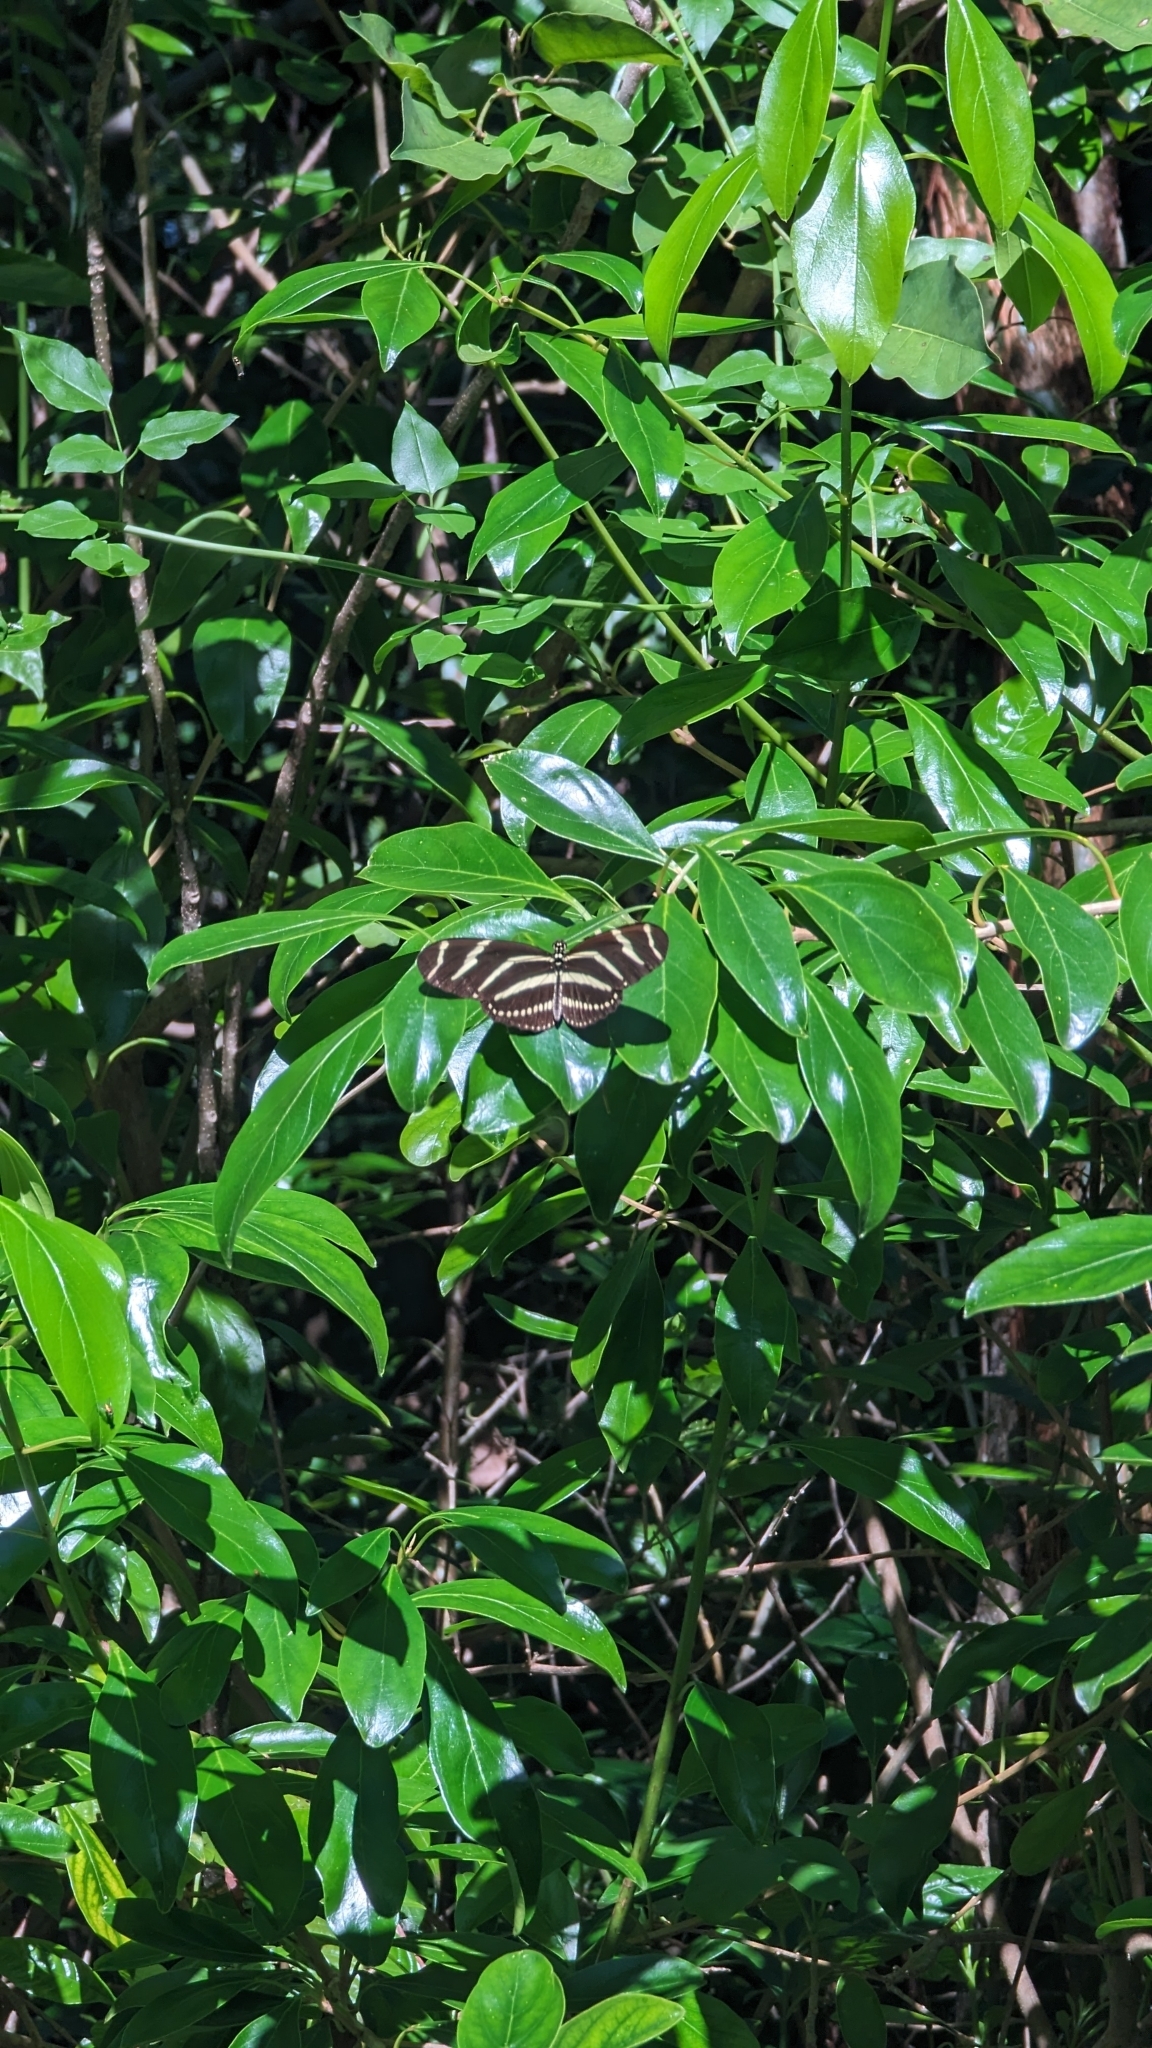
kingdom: Animalia
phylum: Arthropoda
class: Insecta
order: Lepidoptera
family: Nymphalidae
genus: Heliconius
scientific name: Heliconius charithonia
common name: Zebra long wing
